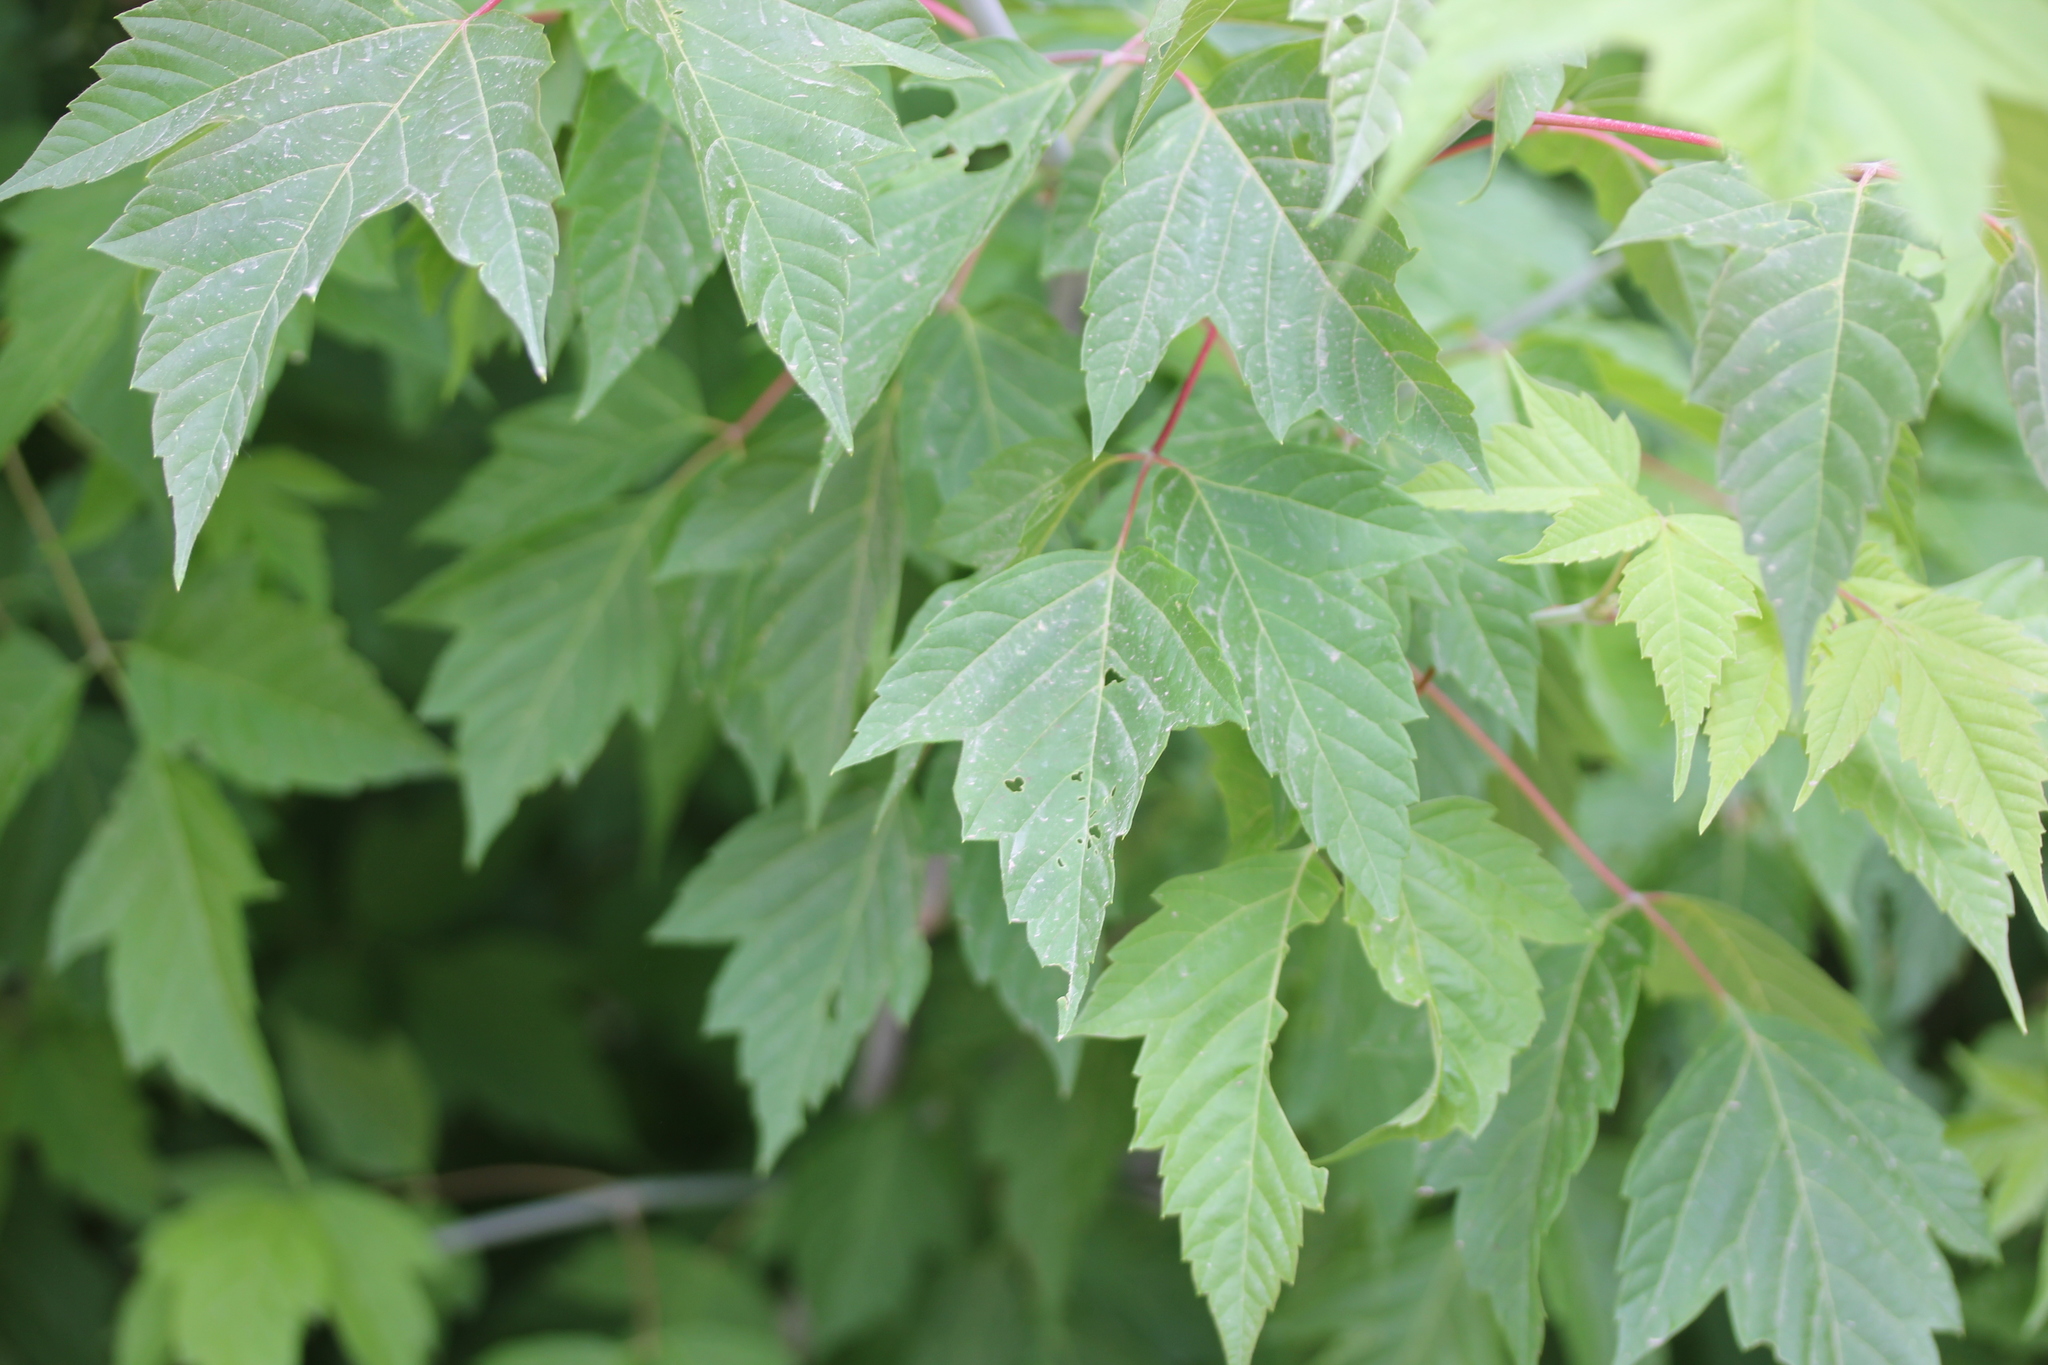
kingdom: Plantae
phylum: Tracheophyta
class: Magnoliopsida
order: Sapindales
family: Sapindaceae
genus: Acer
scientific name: Acer negundo
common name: Ashleaf maple
